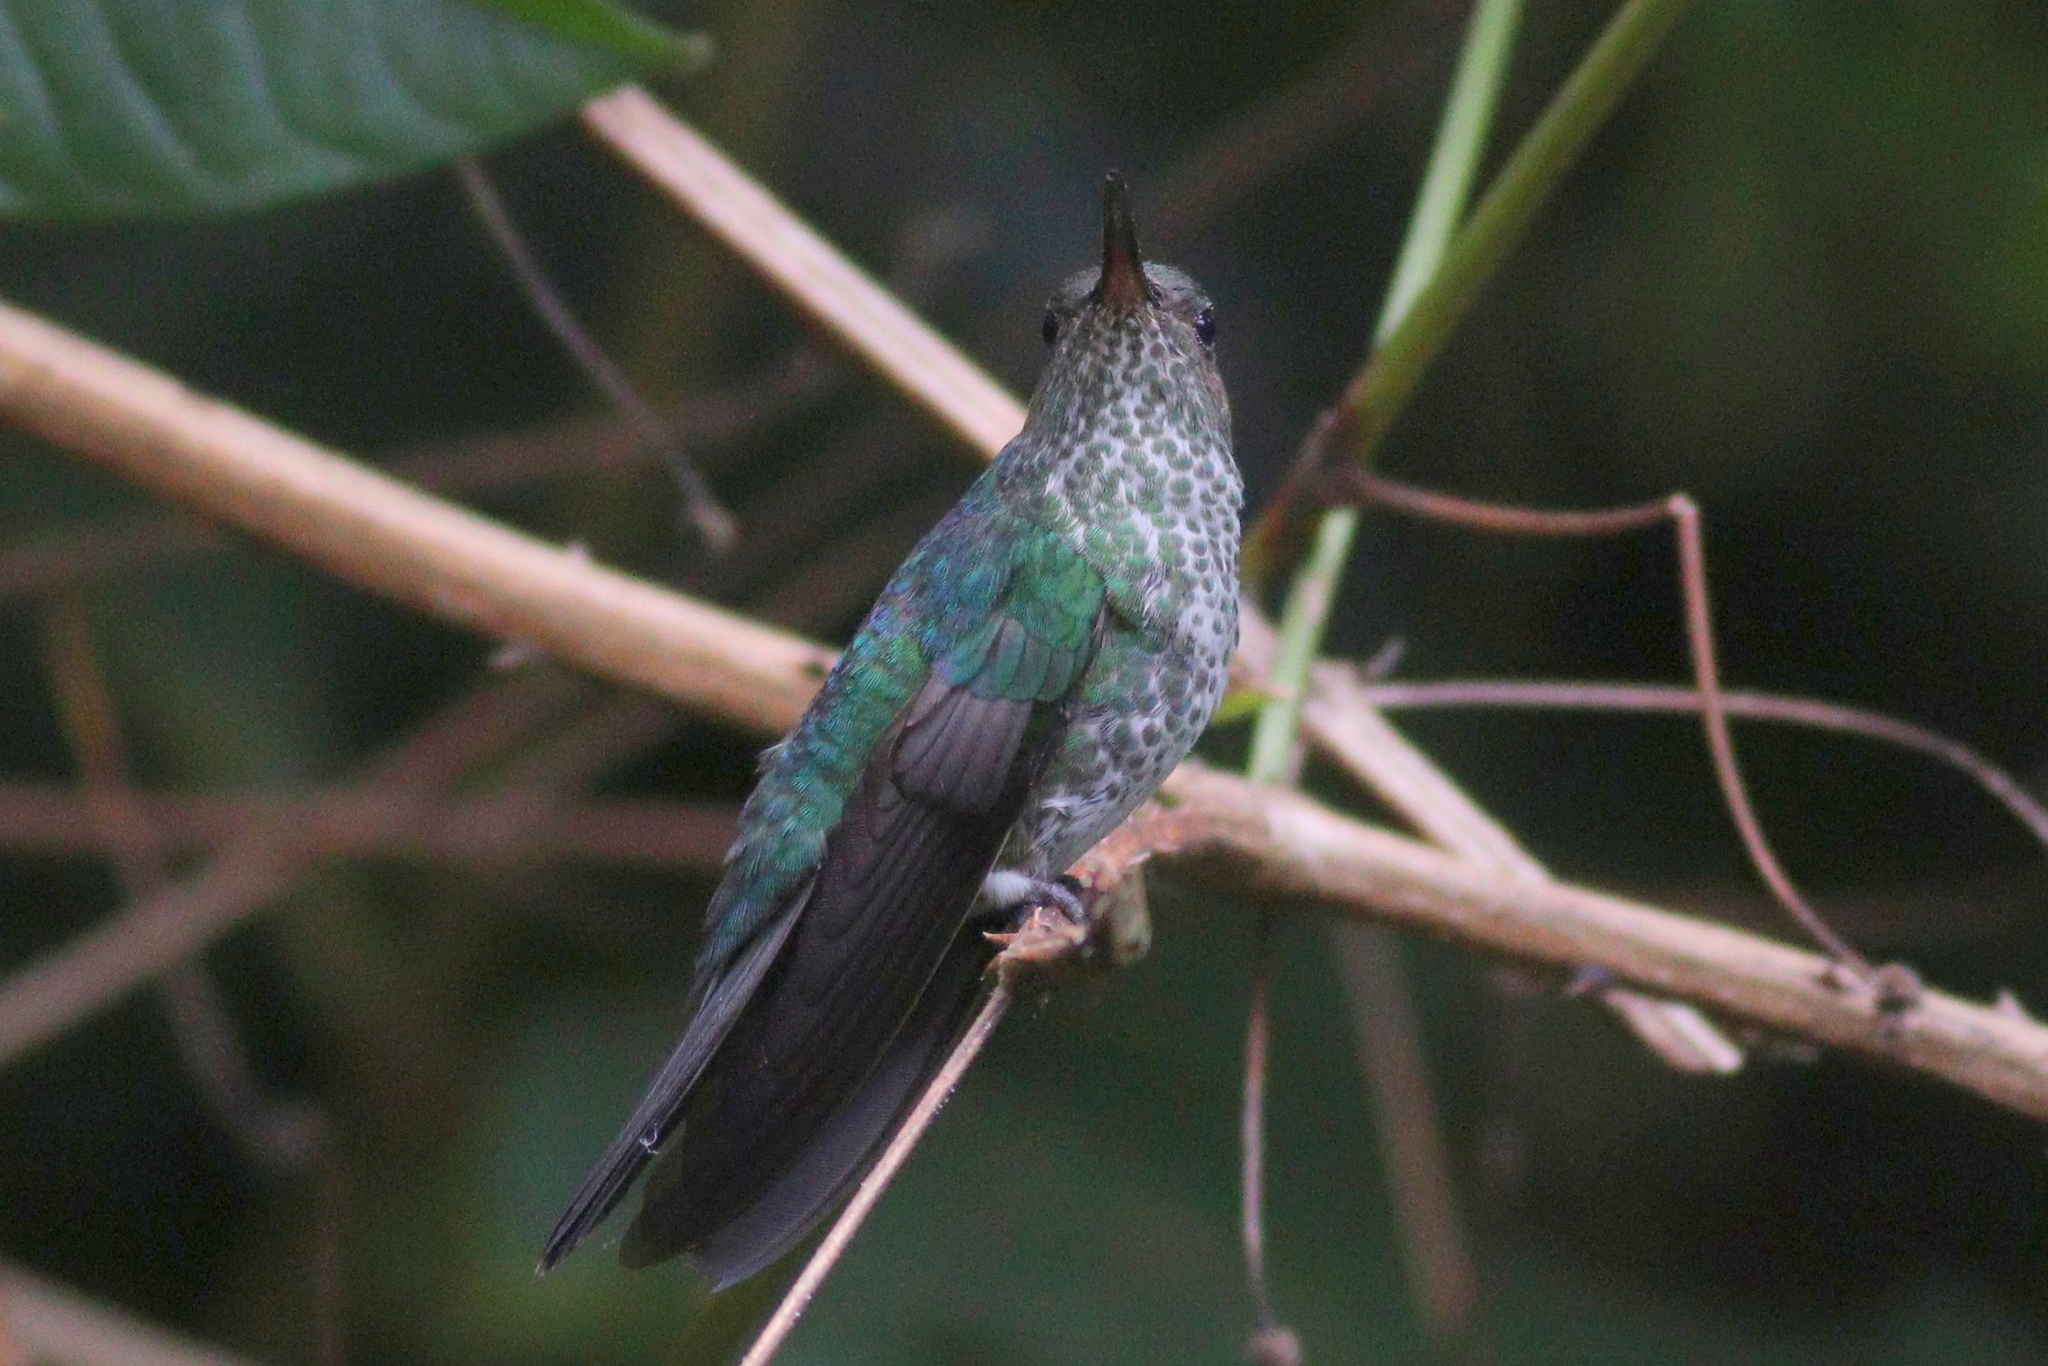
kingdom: Animalia
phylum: Chordata
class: Aves
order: Apodiformes
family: Trochilidae
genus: Taphrospilus
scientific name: Taphrospilus hypostictus
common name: Many-spotted hummingbird
